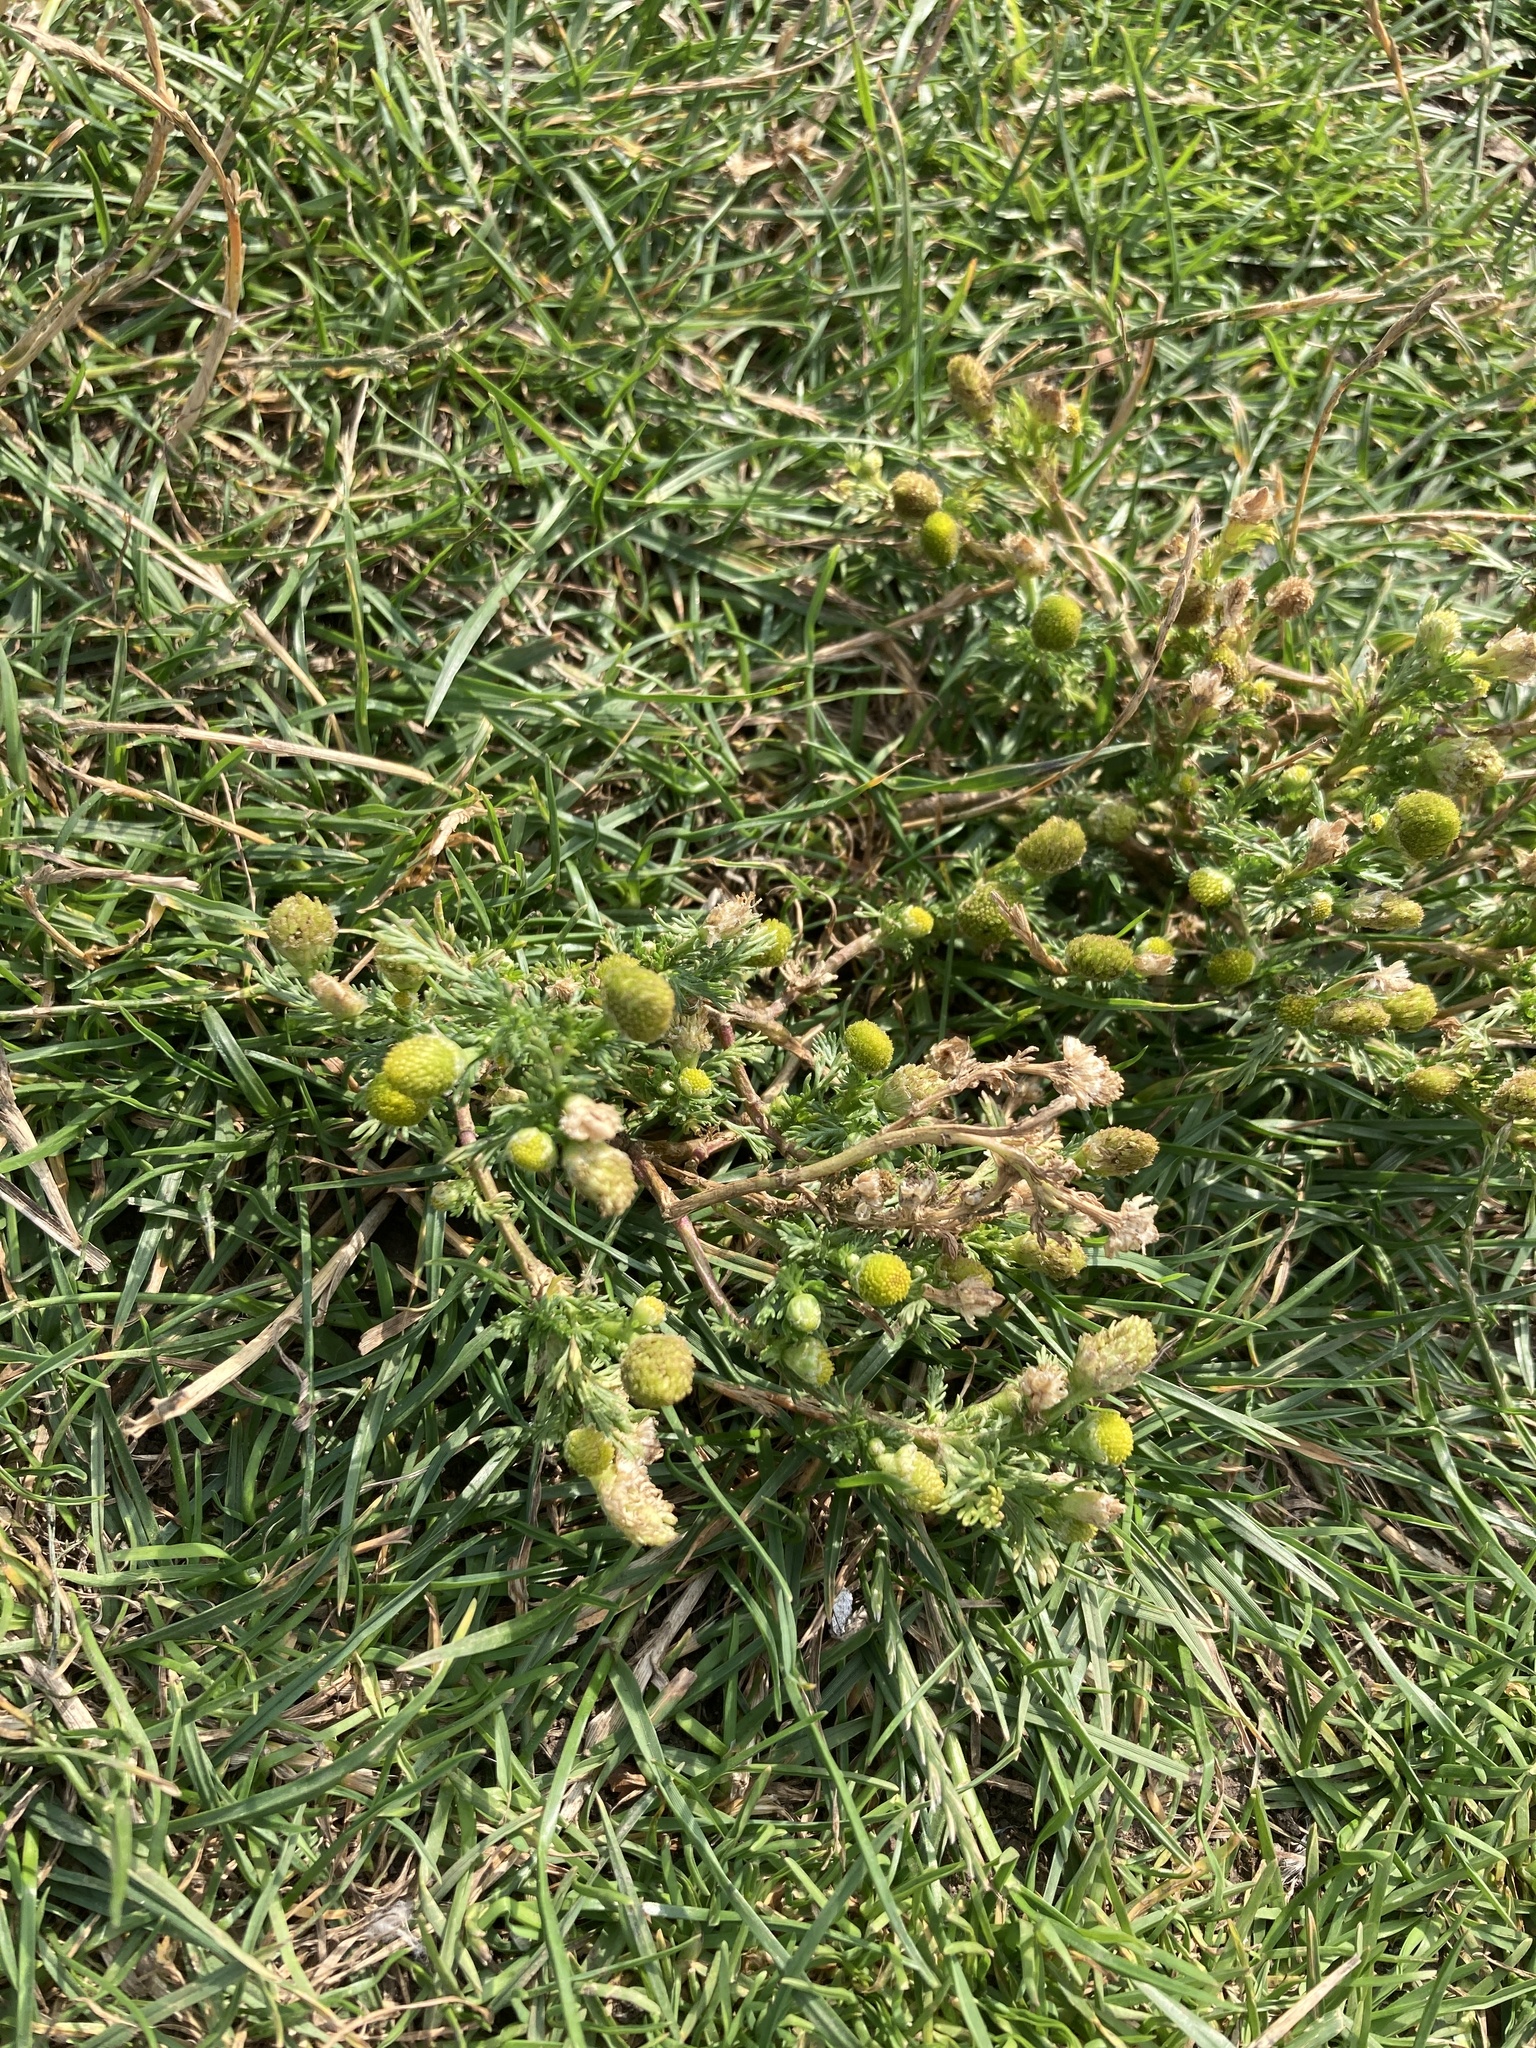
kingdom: Plantae
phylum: Tracheophyta
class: Magnoliopsida
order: Asterales
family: Asteraceae
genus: Matricaria
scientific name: Matricaria discoidea
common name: Disc mayweed
